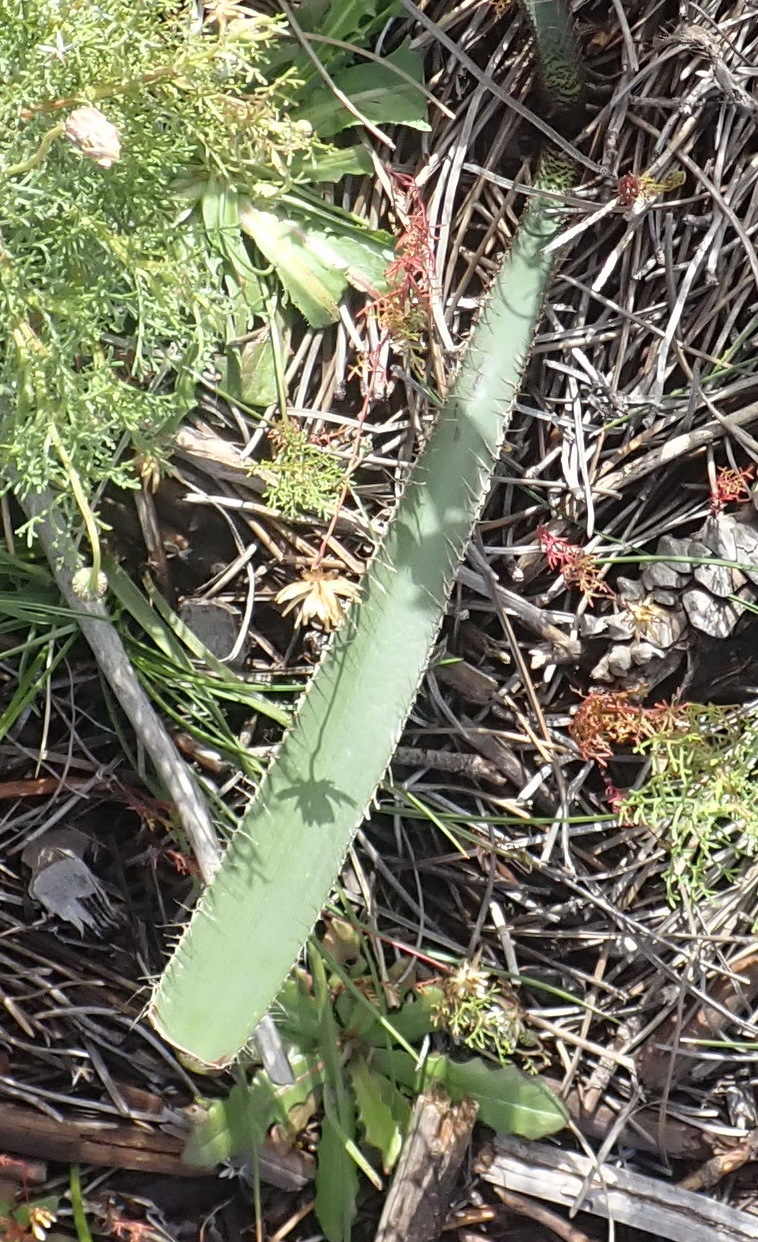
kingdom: Plantae
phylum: Tracheophyta
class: Liliopsida
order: Asparagales
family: Amaryllidaceae
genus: Crossyne
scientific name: Crossyne guttata
